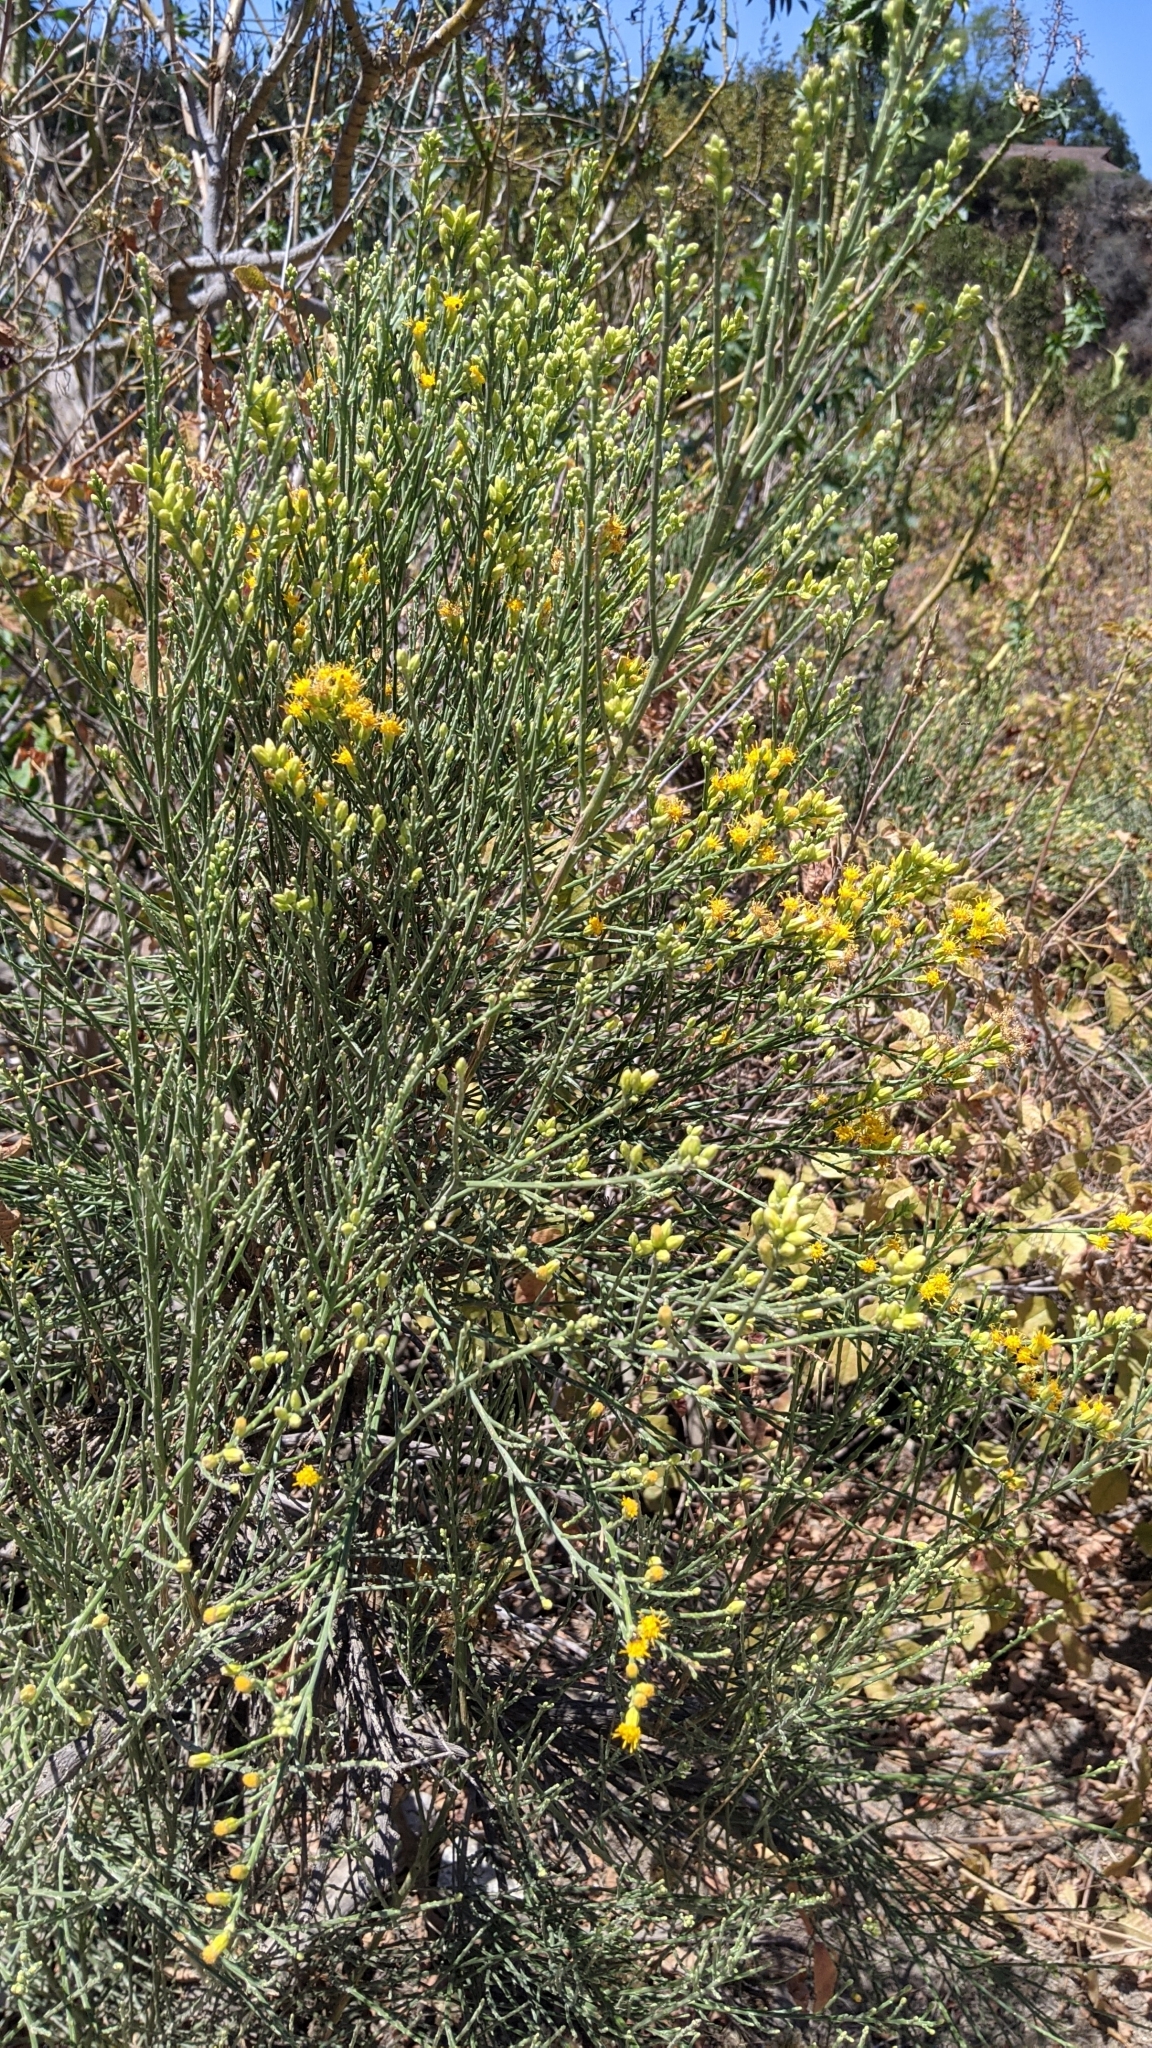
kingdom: Plantae
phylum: Tracheophyta
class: Magnoliopsida
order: Asterales
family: Asteraceae
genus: Lepidospartum
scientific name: Lepidospartum squamatum
